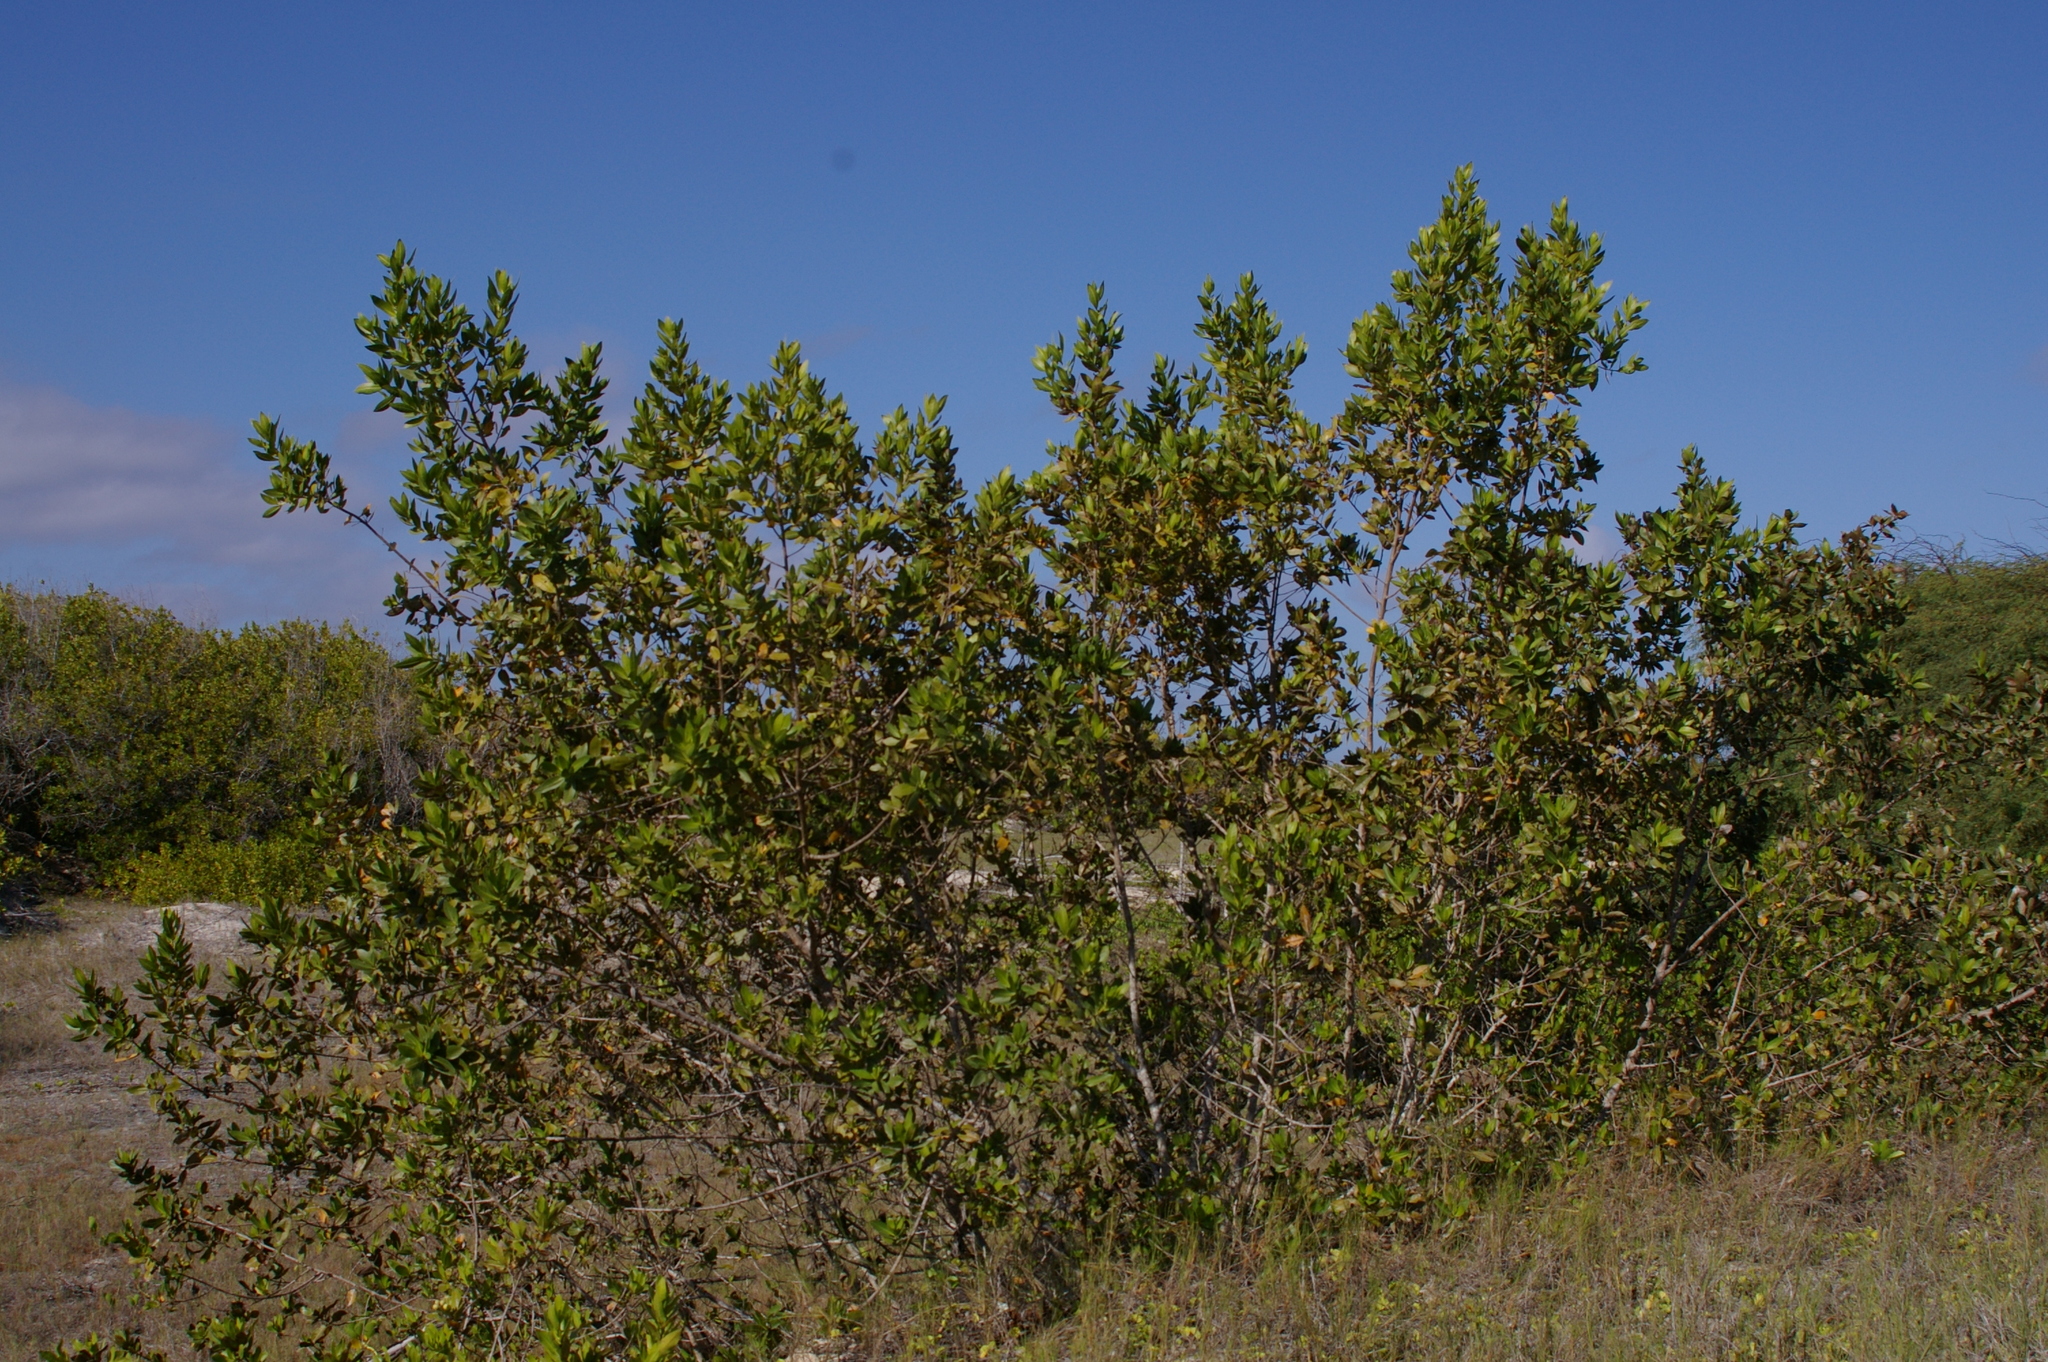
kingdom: Plantae
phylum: Tracheophyta
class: Magnoliopsida
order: Myrtales
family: Combretaceae
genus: Conocarpus
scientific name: Conocarpus erectus
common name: Button mangrove
